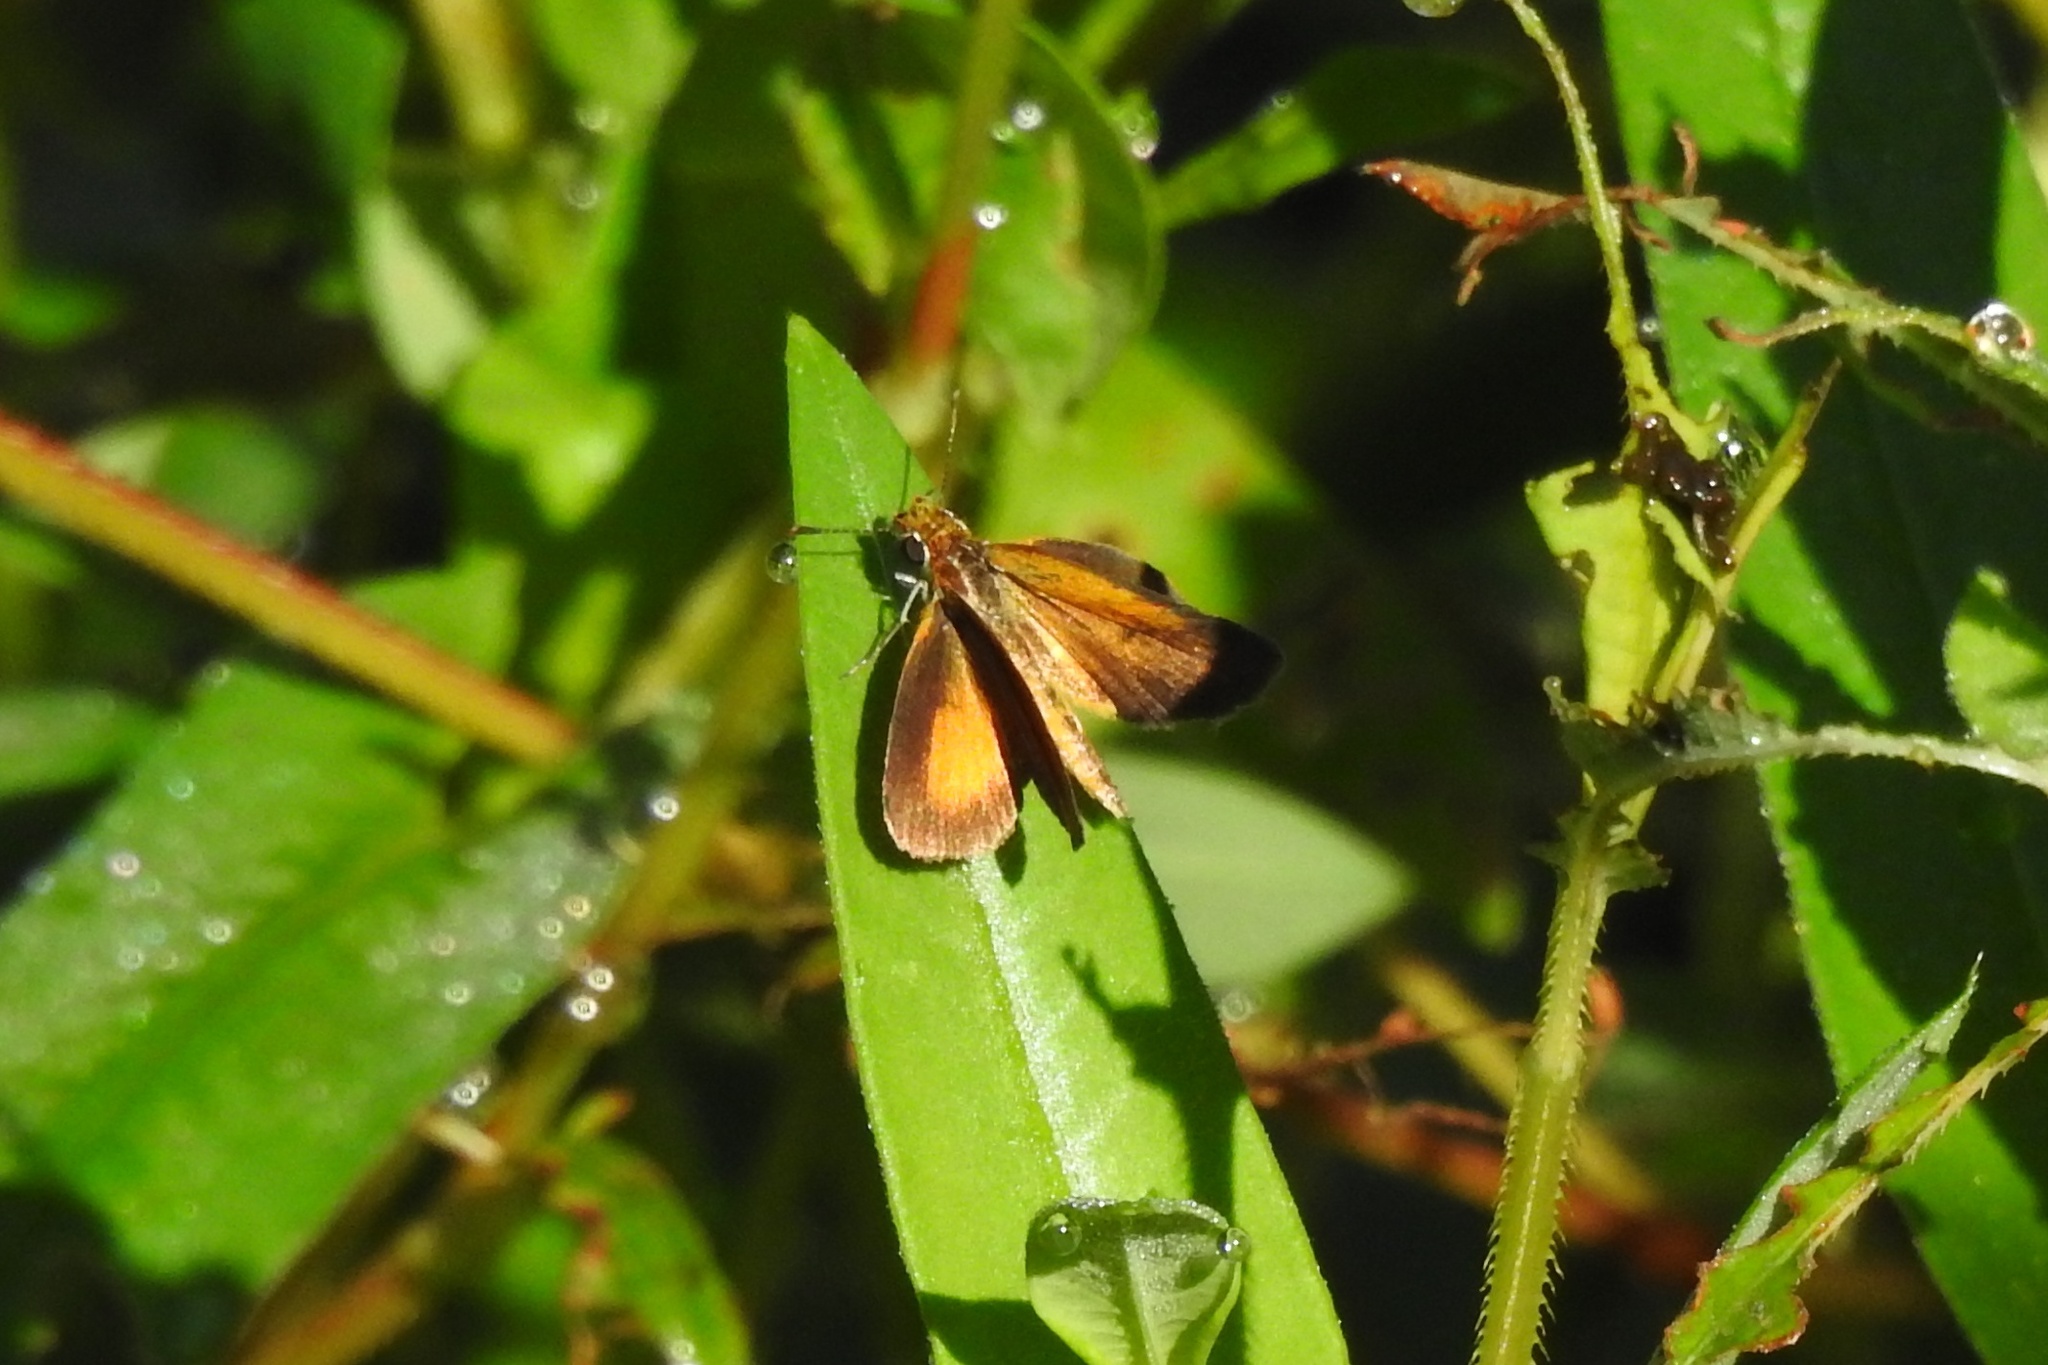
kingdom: Animalia
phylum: Arthropoda
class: Insecta
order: Lepidoptera
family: Hesperiidae
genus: Ancyloxypha
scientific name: Ancyloxypha numitor
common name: Least skipper
